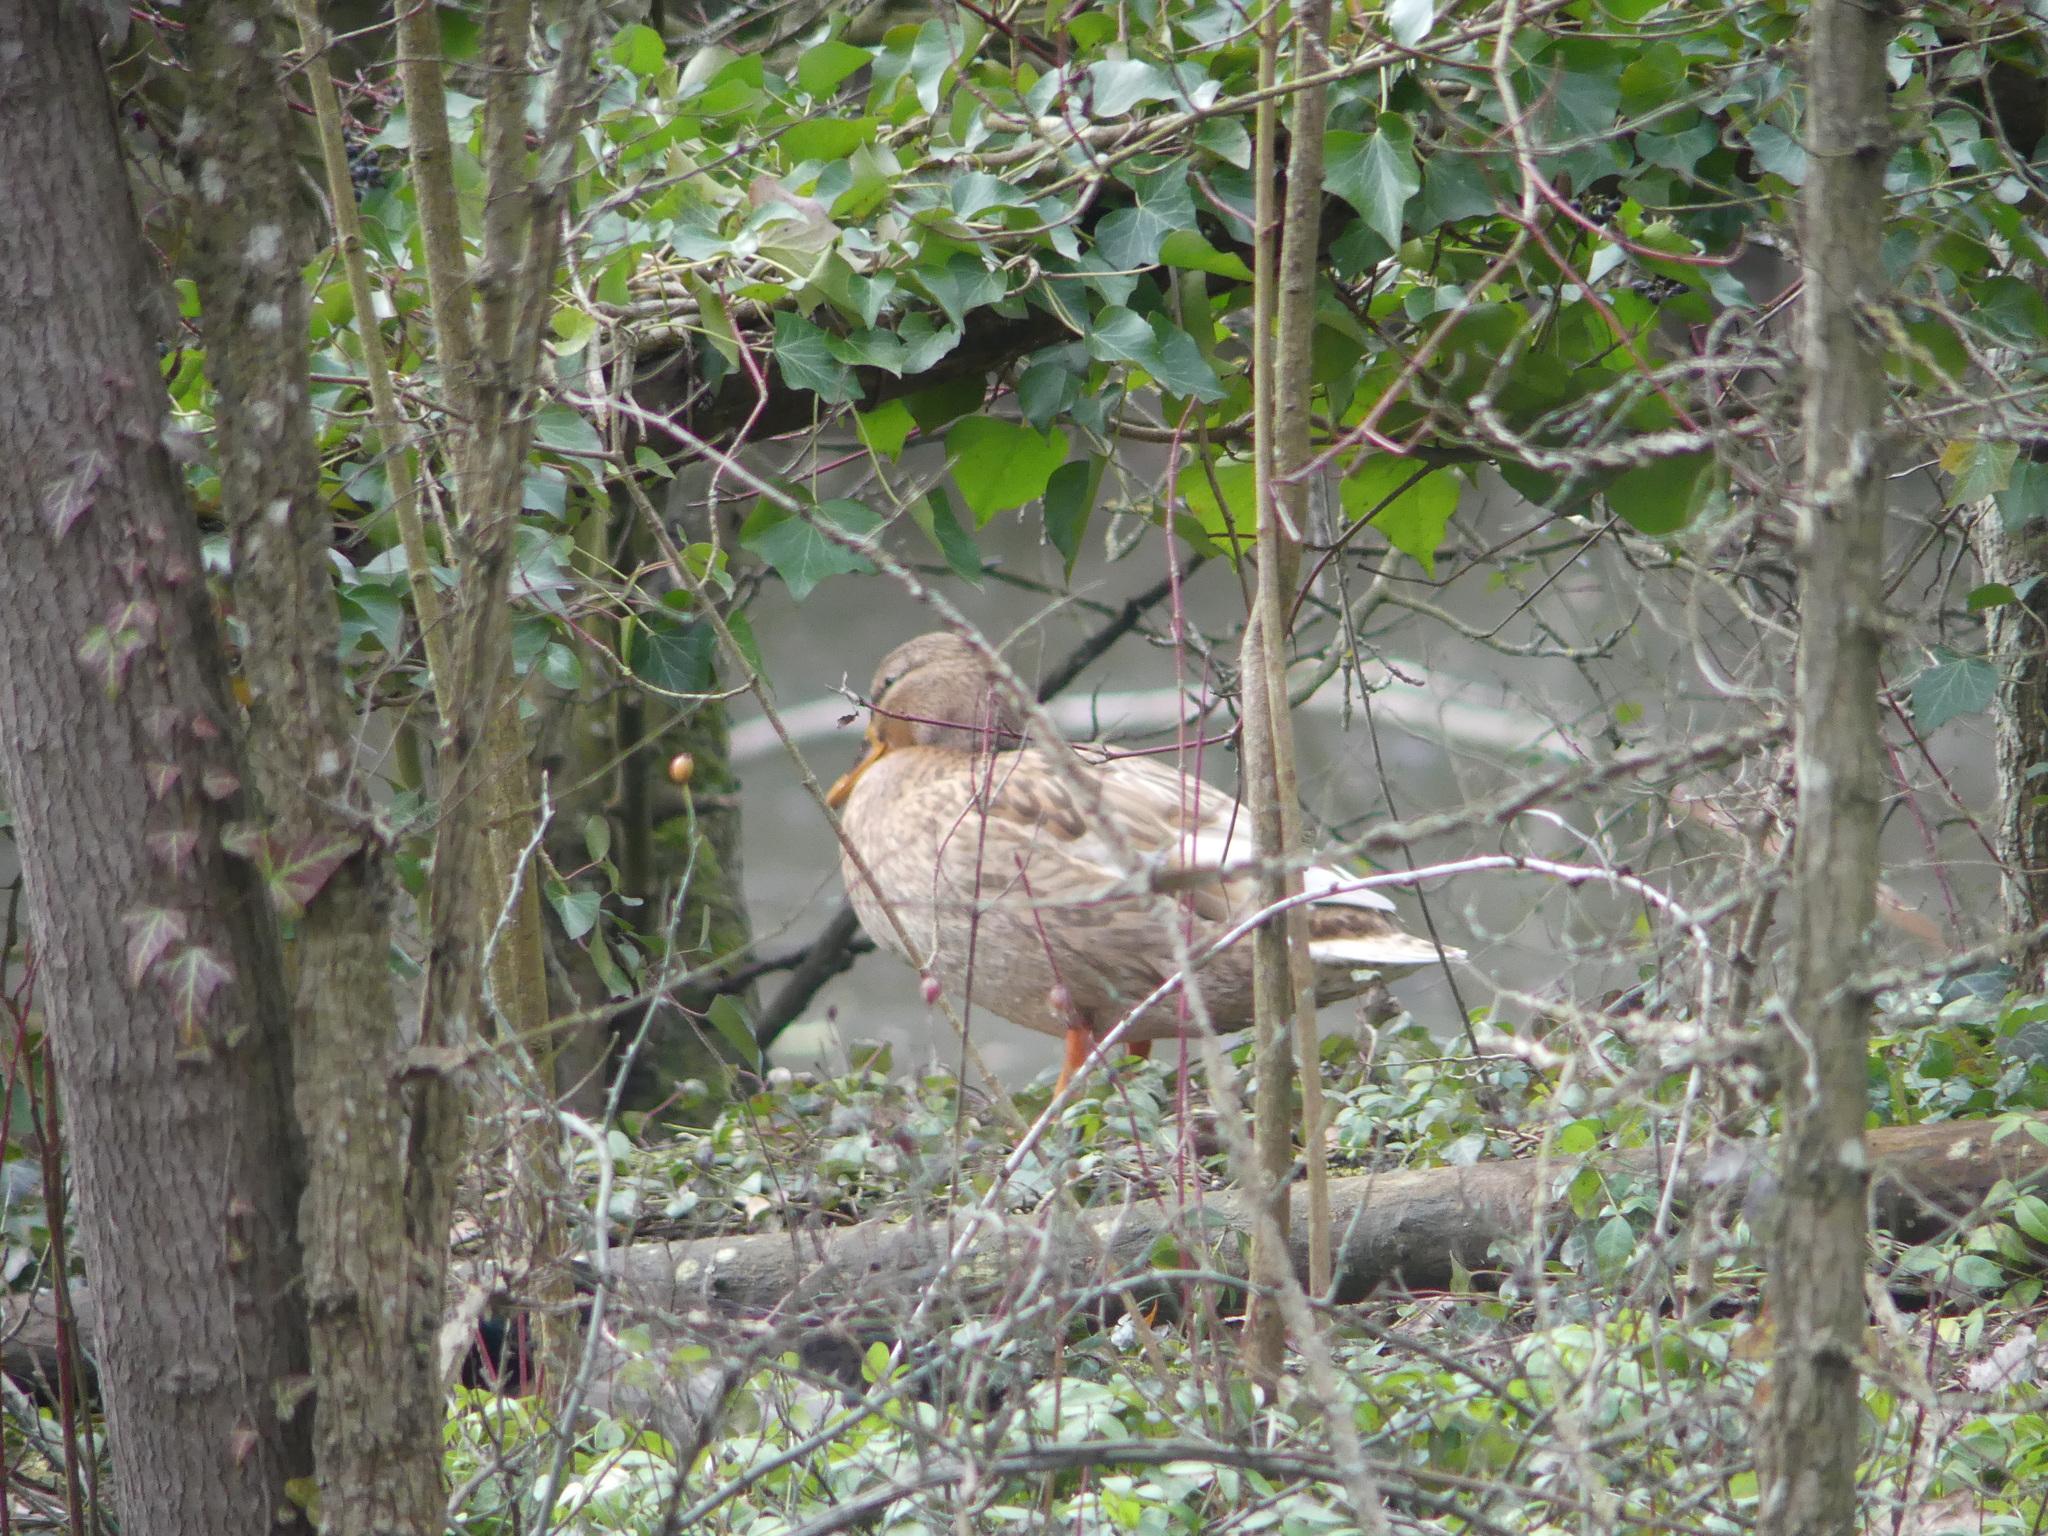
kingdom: Animalia
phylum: Chordata
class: Aves
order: Anseriformes
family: Anatidae
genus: Anas
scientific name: Anas platyrhynchos
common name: Mallard
